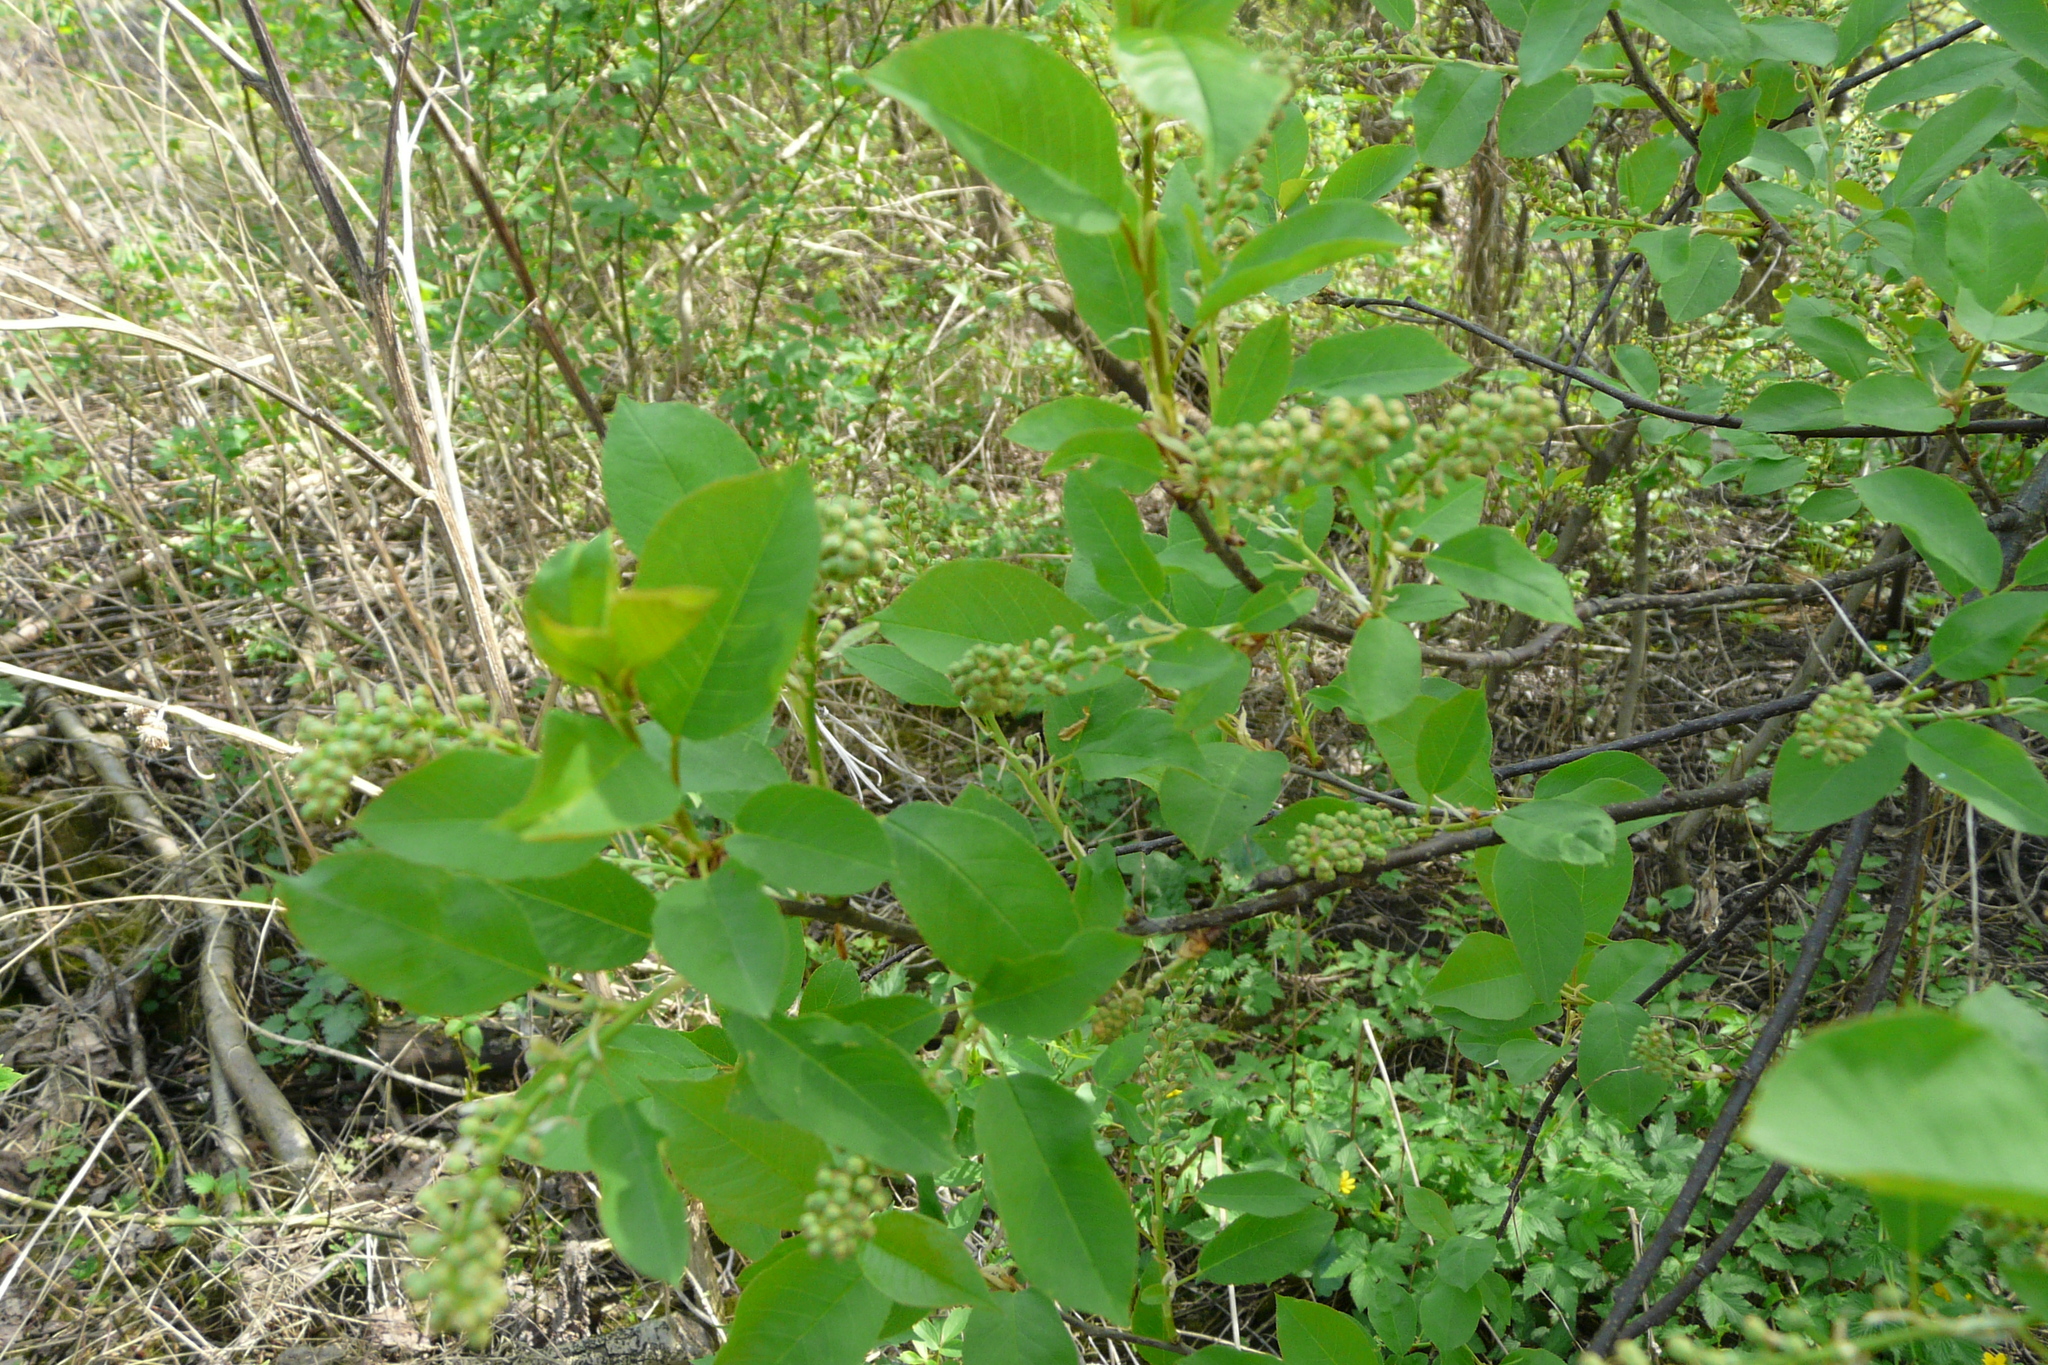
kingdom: Plantae
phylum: Tracheophyta
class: Magnoliopsida
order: Rosales
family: Rosaceae
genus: Prunus
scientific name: Prunus virginiana
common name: Chokecherry
